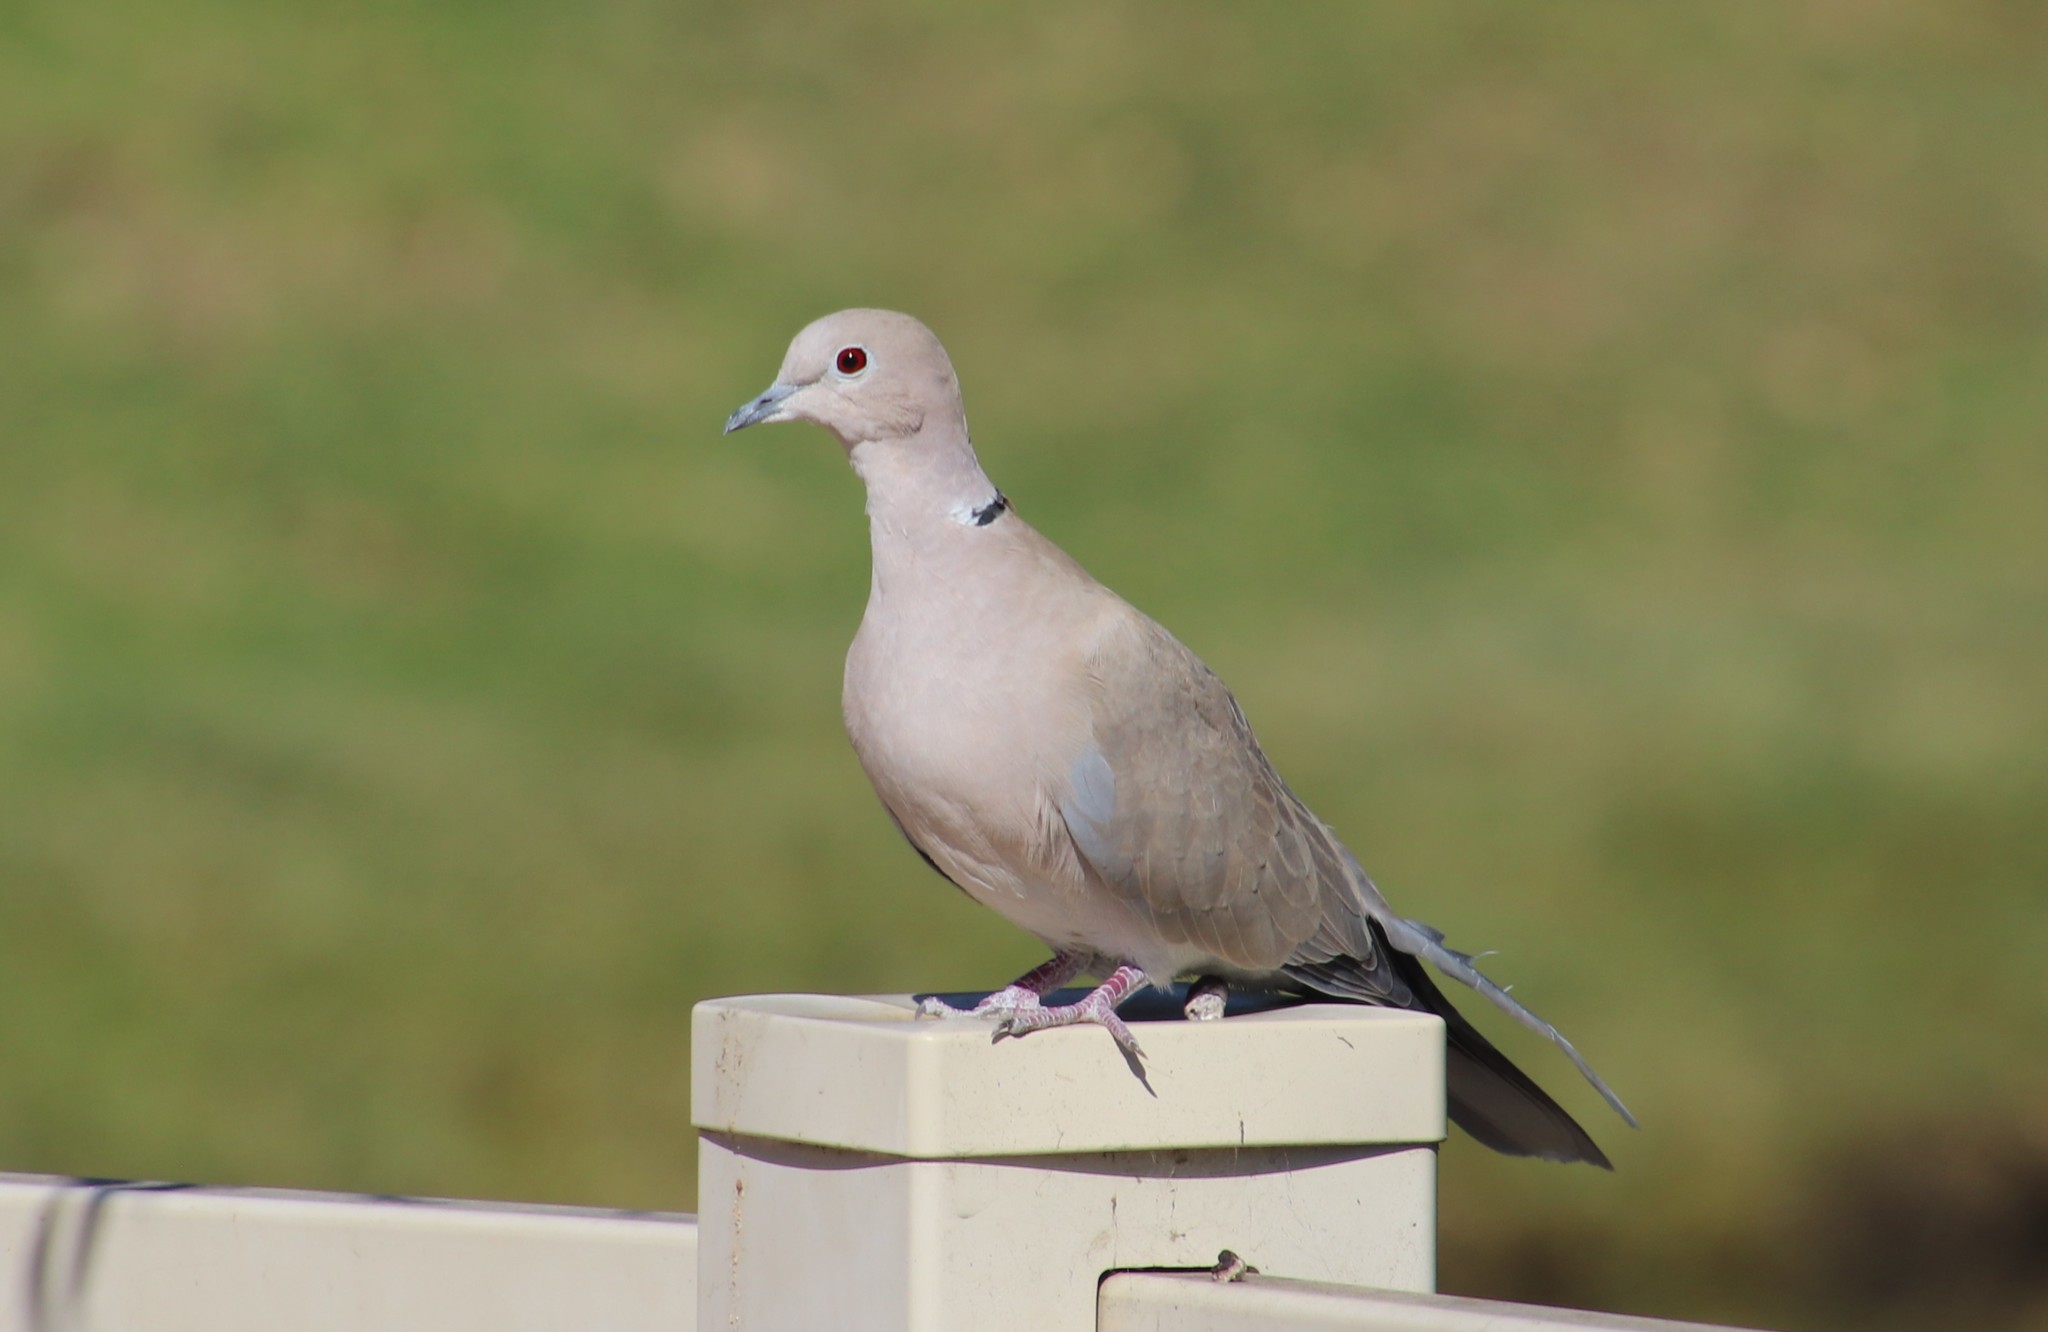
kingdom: Animalia
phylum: Chordata
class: Aves
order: Columbiformes
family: Columbidae
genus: Streptopelia
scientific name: Streptopelia decaocto
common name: Eurasian collared dove
